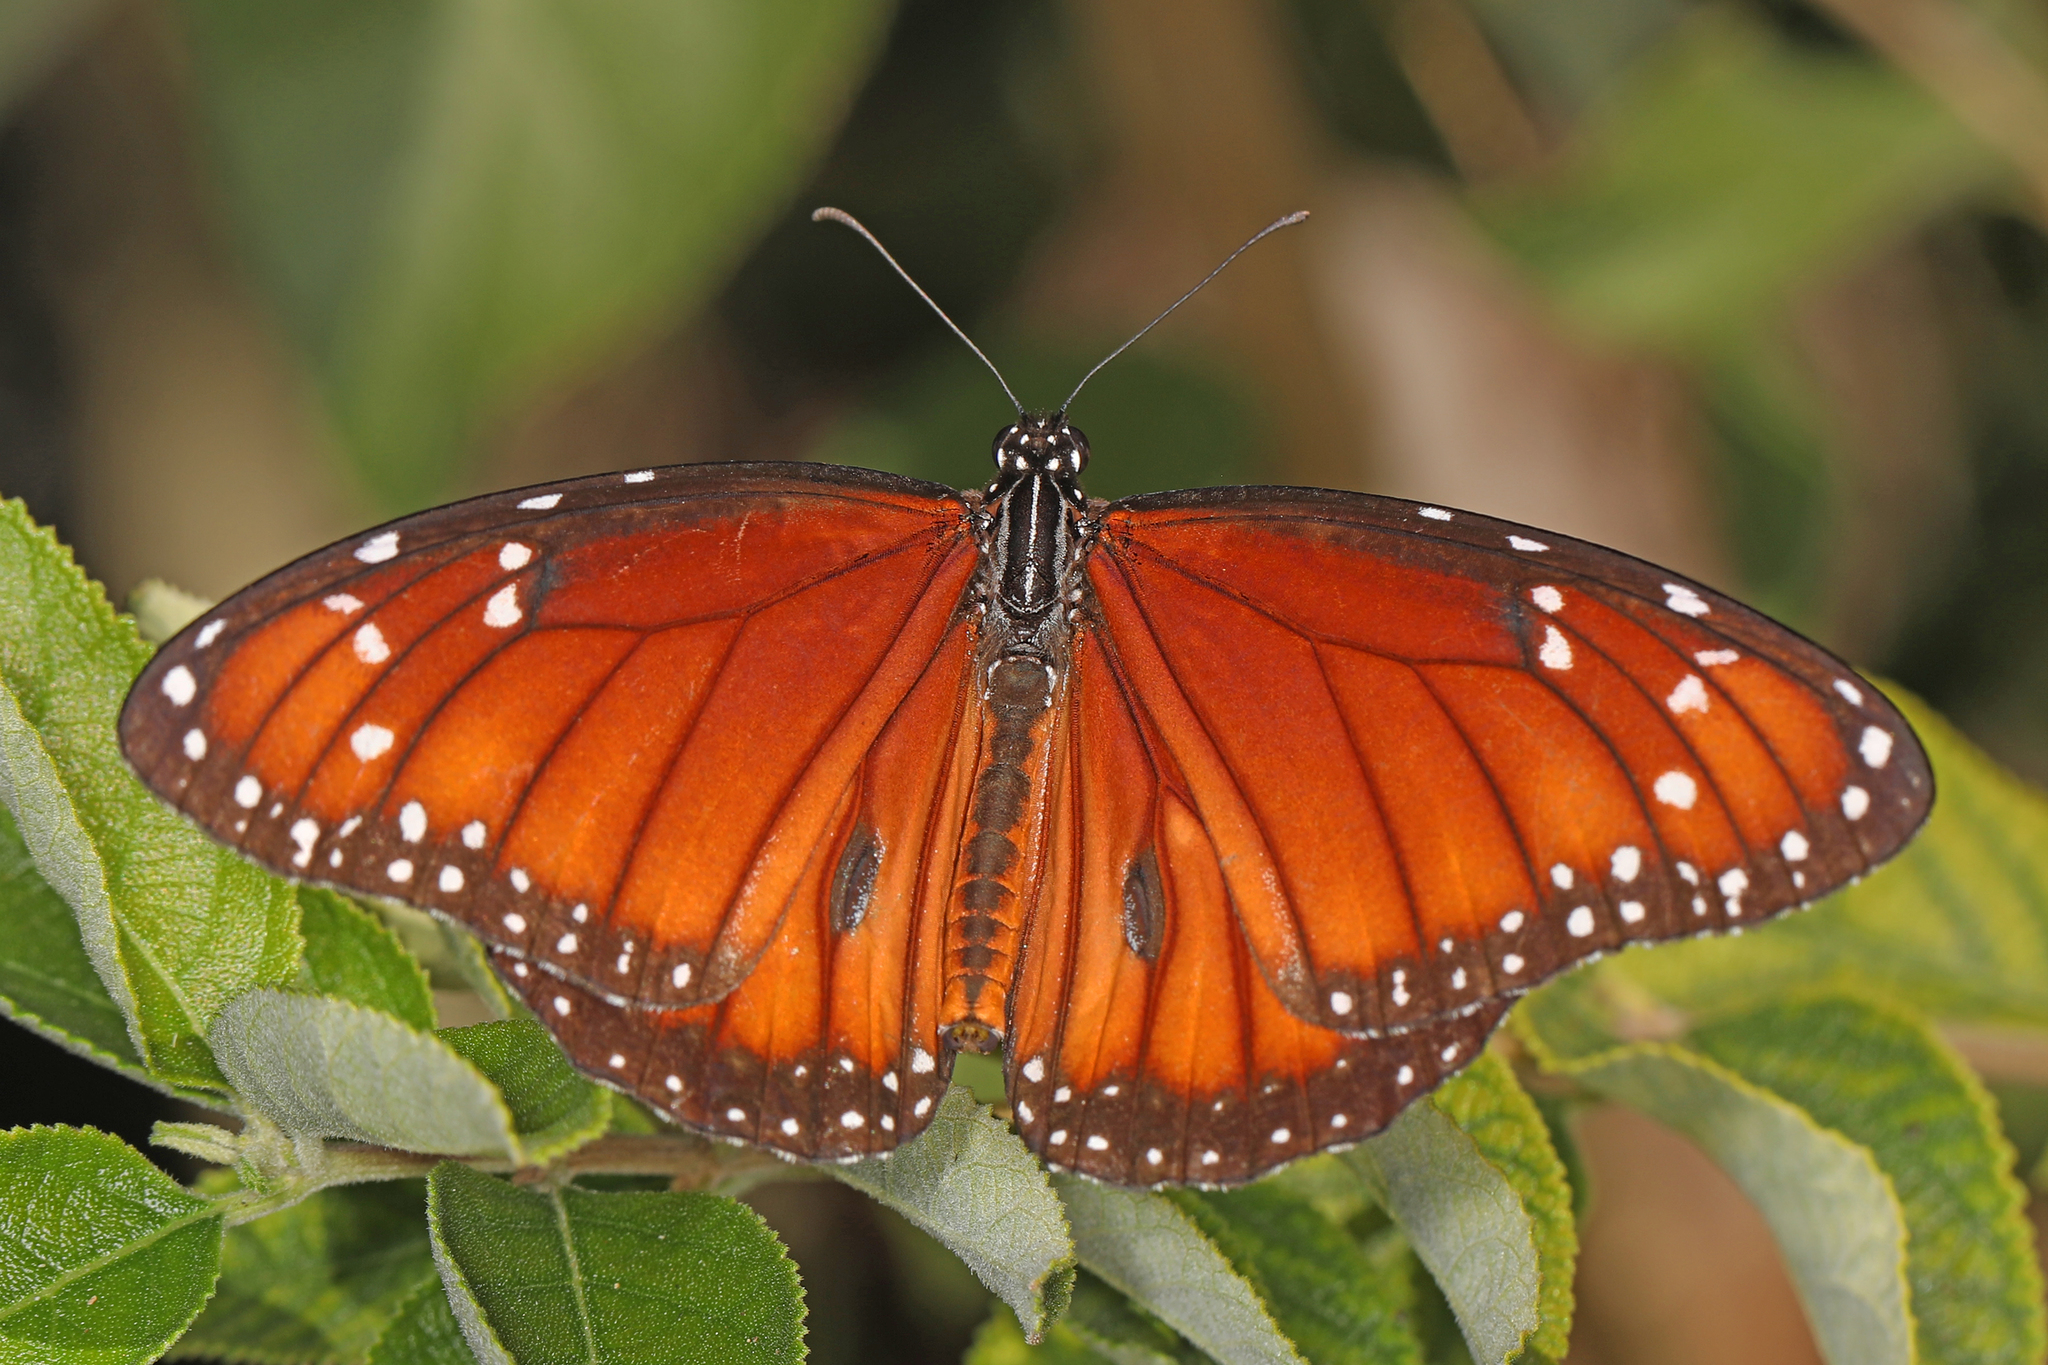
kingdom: Animalia
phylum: Arthropoda
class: Insecta
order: Lepidoptera
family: Nymphalidae
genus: Danaus
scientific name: Danaus eresimus
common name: Soldier
